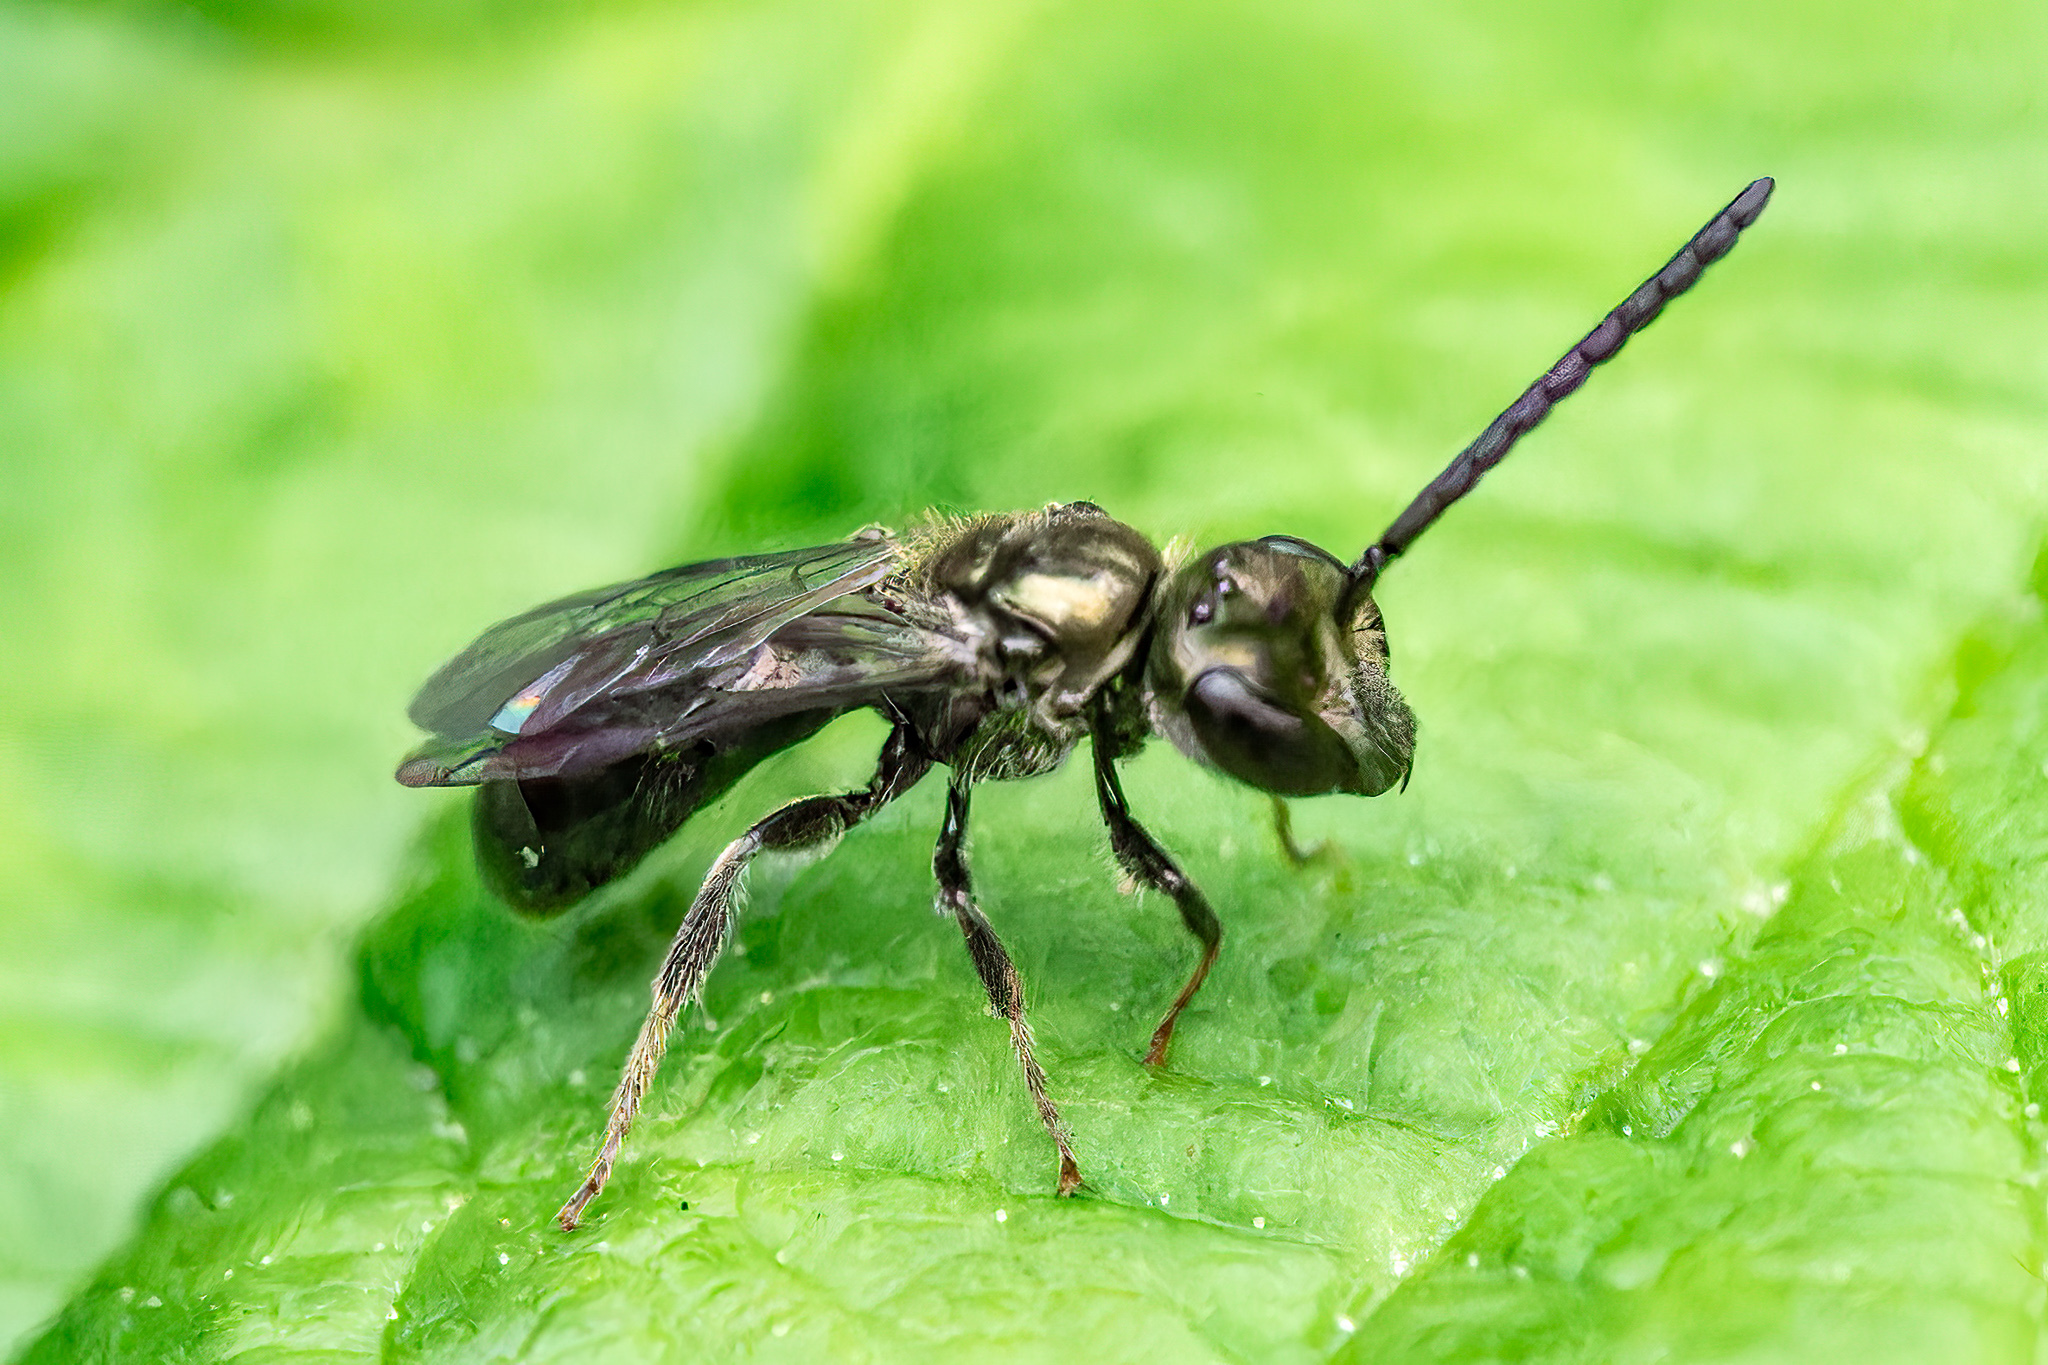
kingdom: Animalia
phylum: Arthropoda
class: Insecta
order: Hymenoptera
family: Halictidae
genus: Dialictus
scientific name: Dialictus
